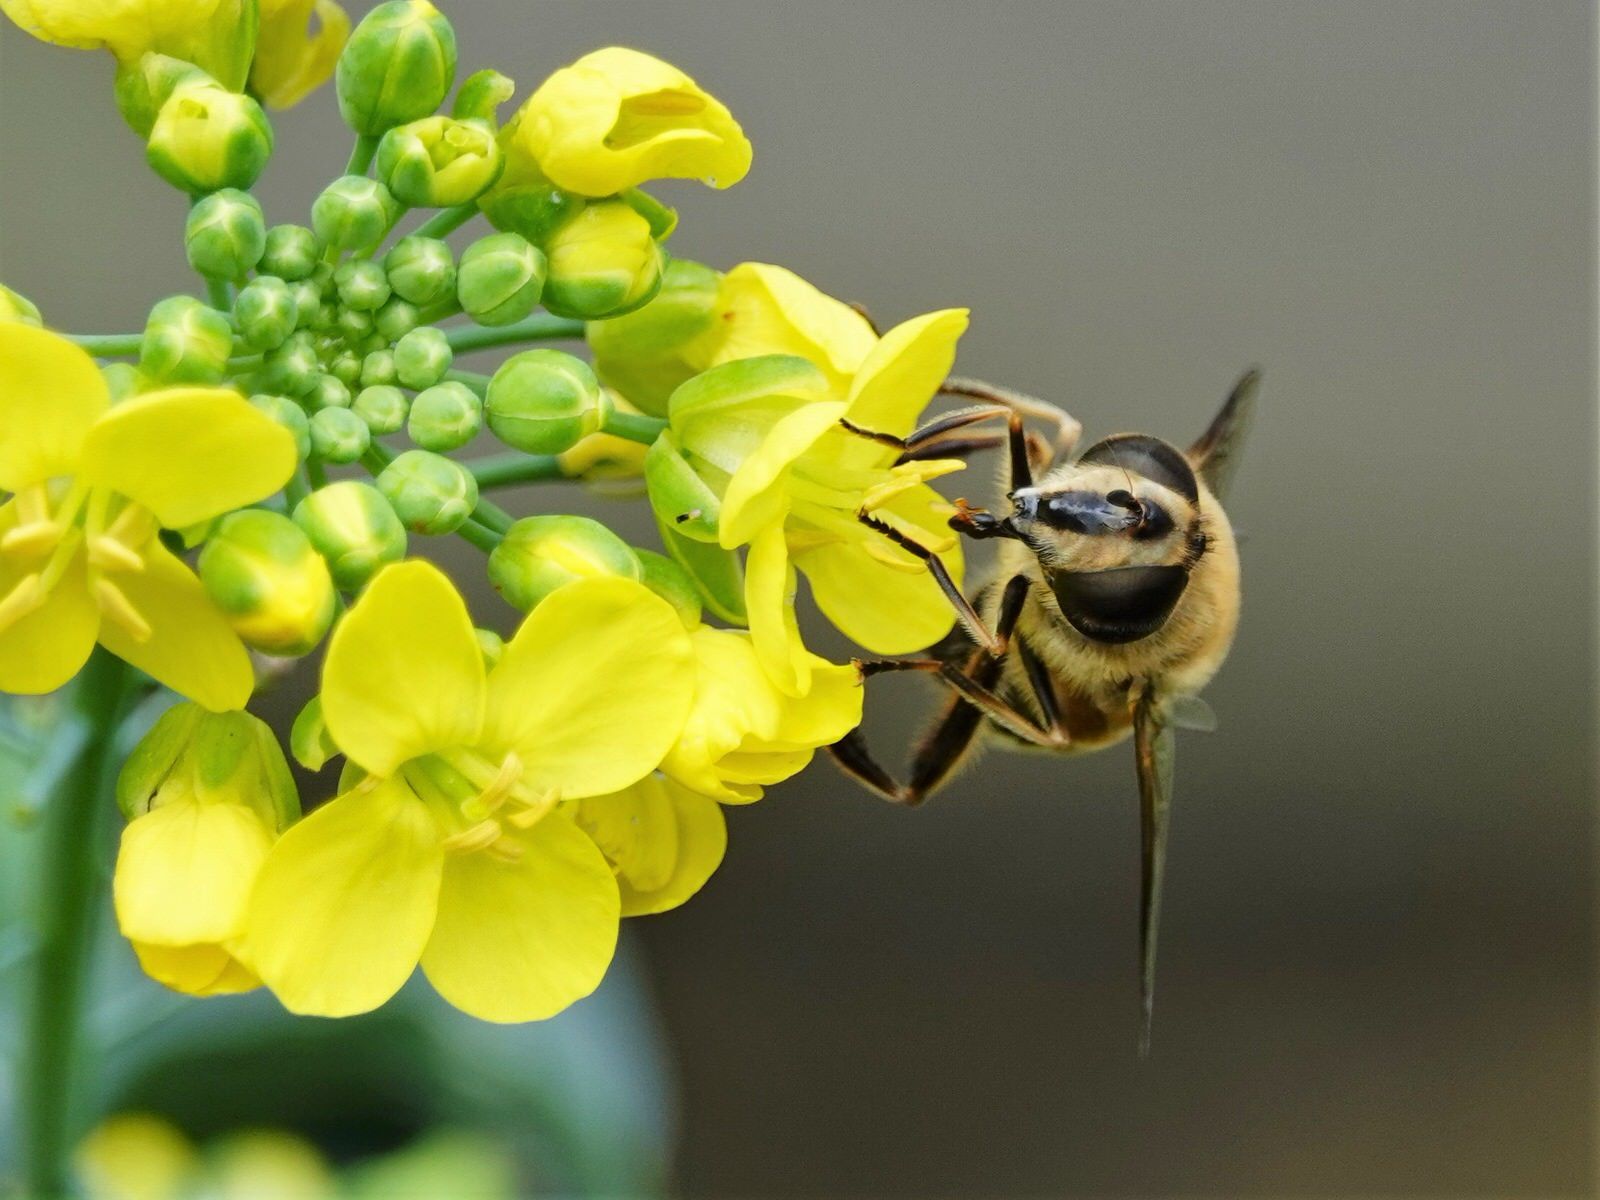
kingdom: Animalia
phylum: Arthropoda
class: Insecta
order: Diptera
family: Syrphidae
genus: Eristalis
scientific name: Eristalis tenax
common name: Drone fly
